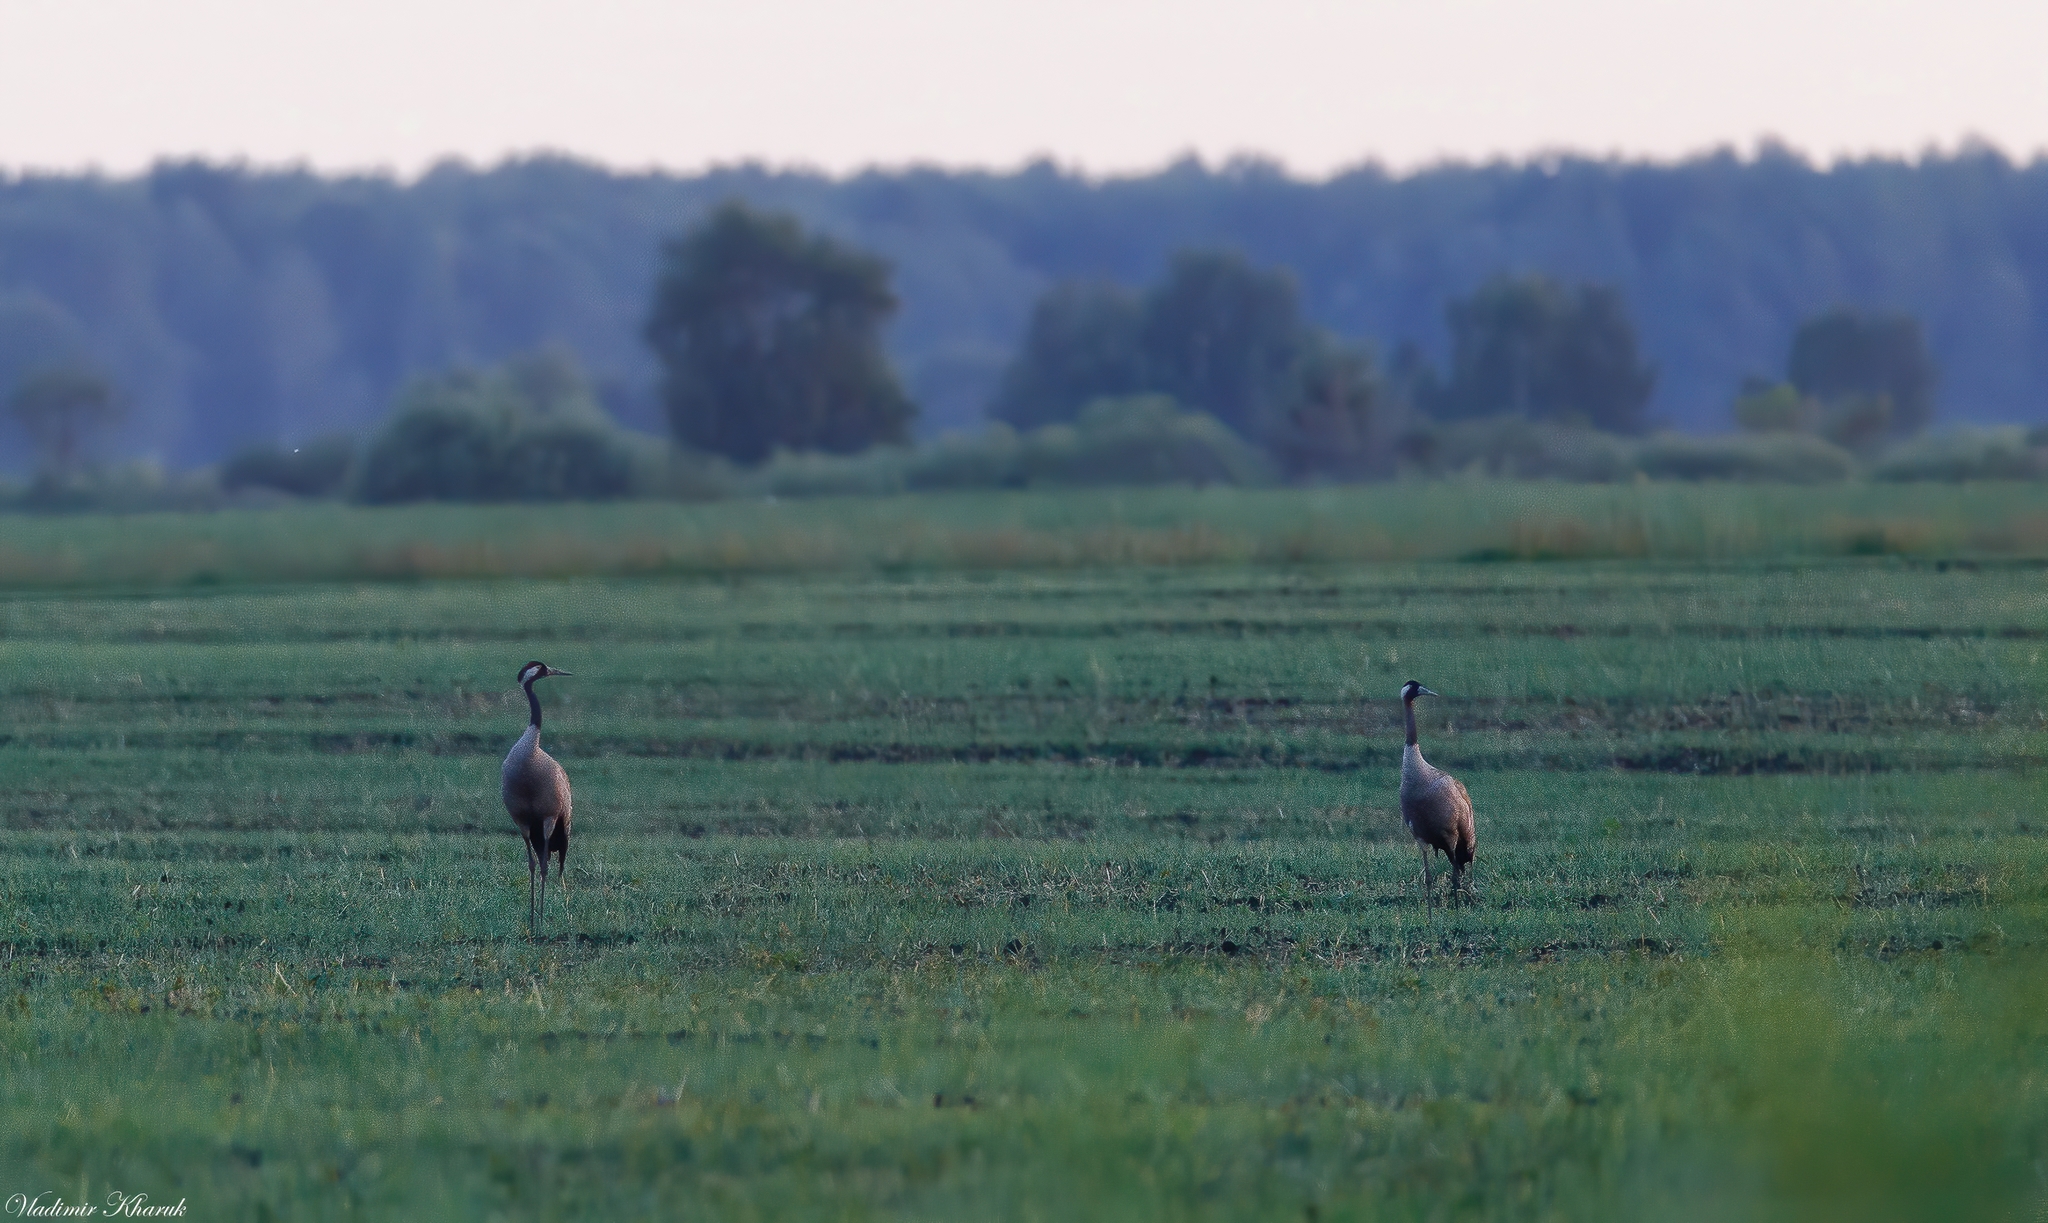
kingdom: Animalia
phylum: Chordata
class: Aves
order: Gruiformes
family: Gruidae
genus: Grus
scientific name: Grus grus
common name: Common crane
